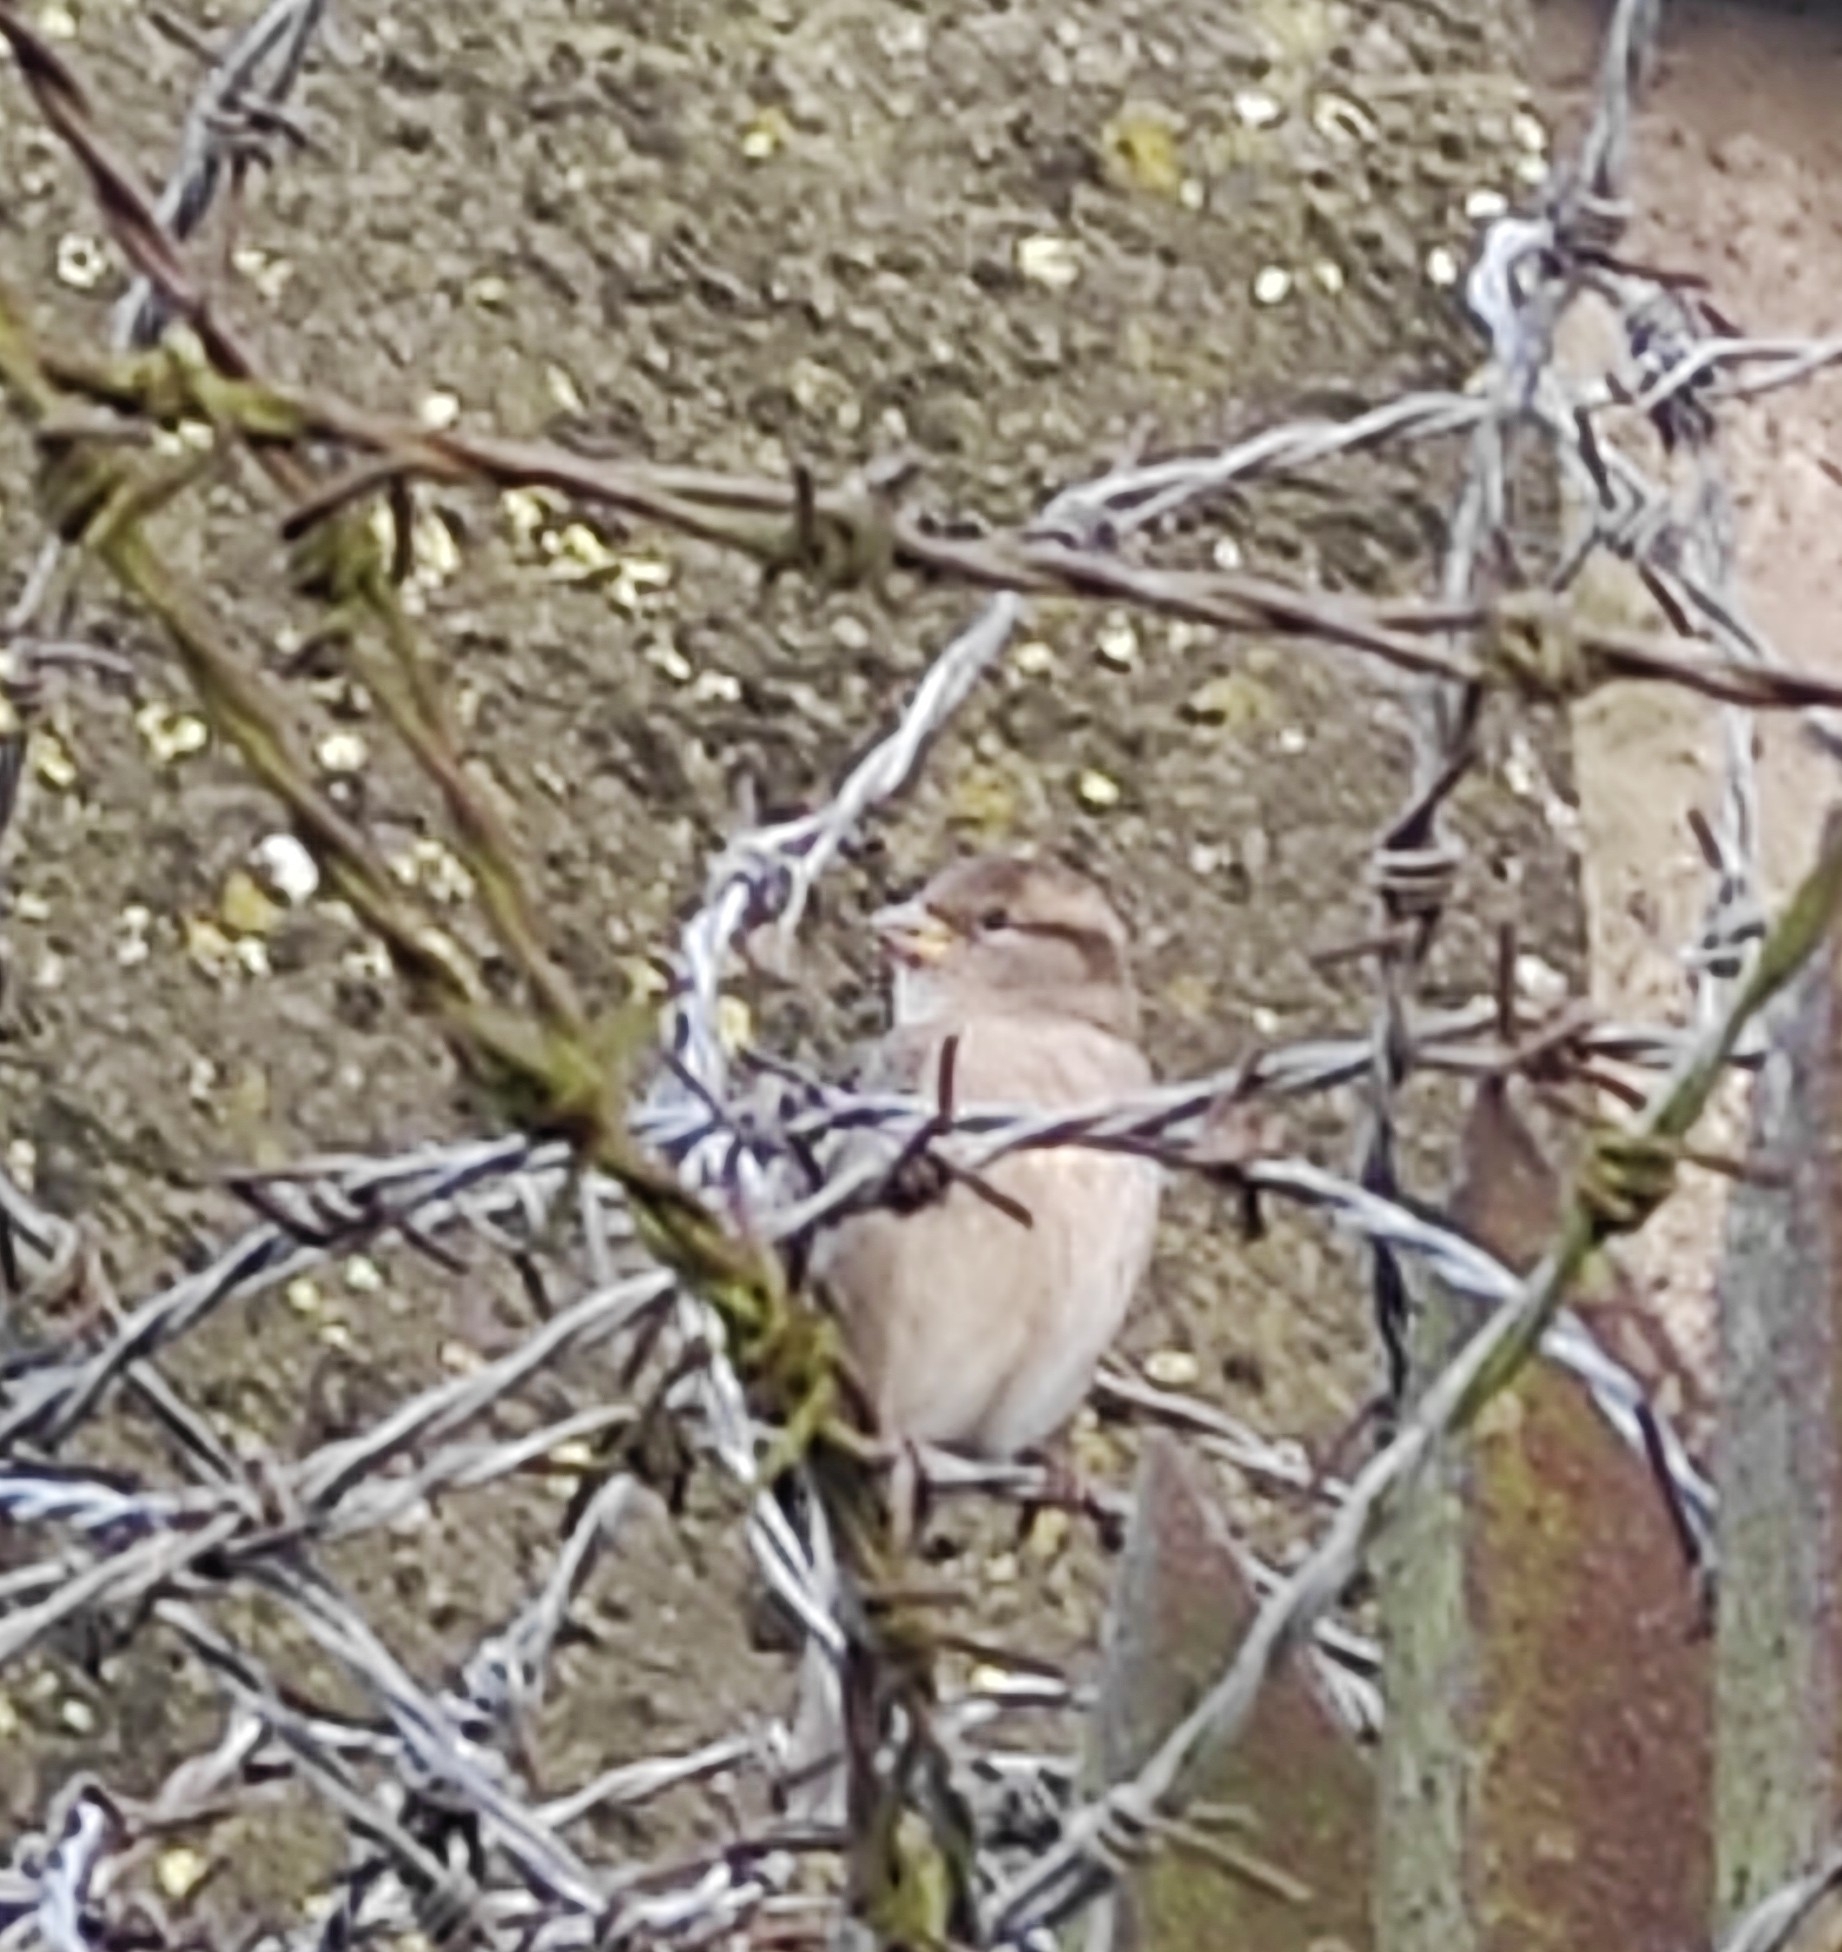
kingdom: Animalia
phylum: Chordata
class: Aves
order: Passeriformes
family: Passeridae
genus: Passer
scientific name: Passer domesticus
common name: House sparrow
